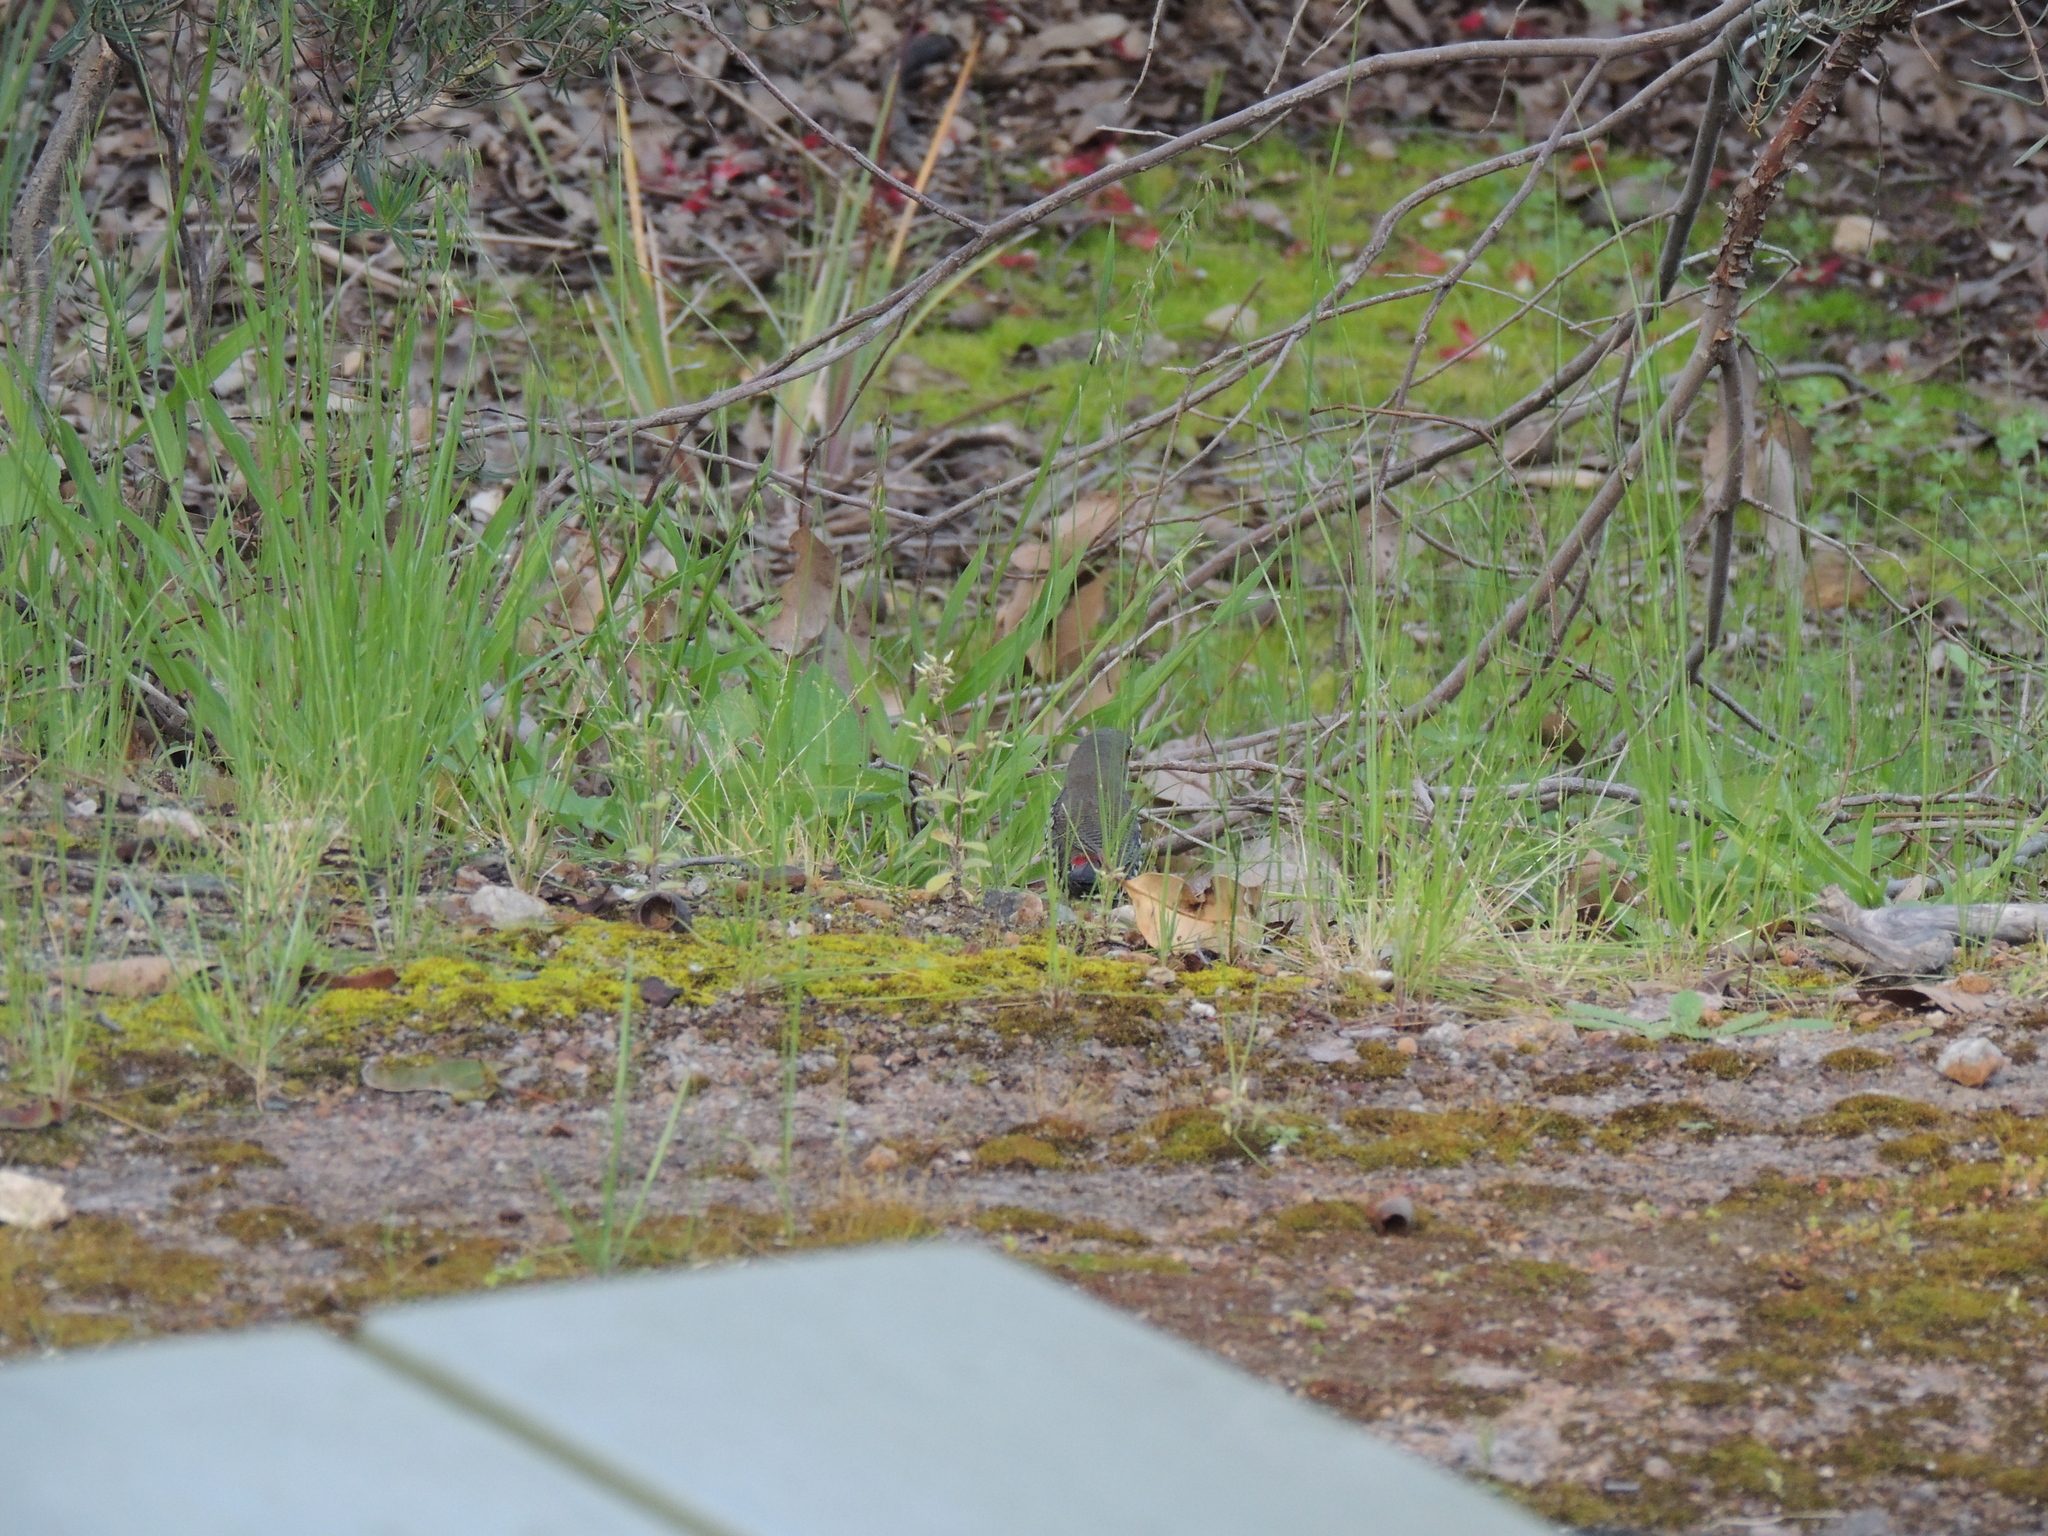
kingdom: Animalia
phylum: Chordata
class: Aves
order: Passeriformes
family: Estrildidae
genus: Stagonopleura
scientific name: Stagonopleura oculata
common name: Red-eared firetail
